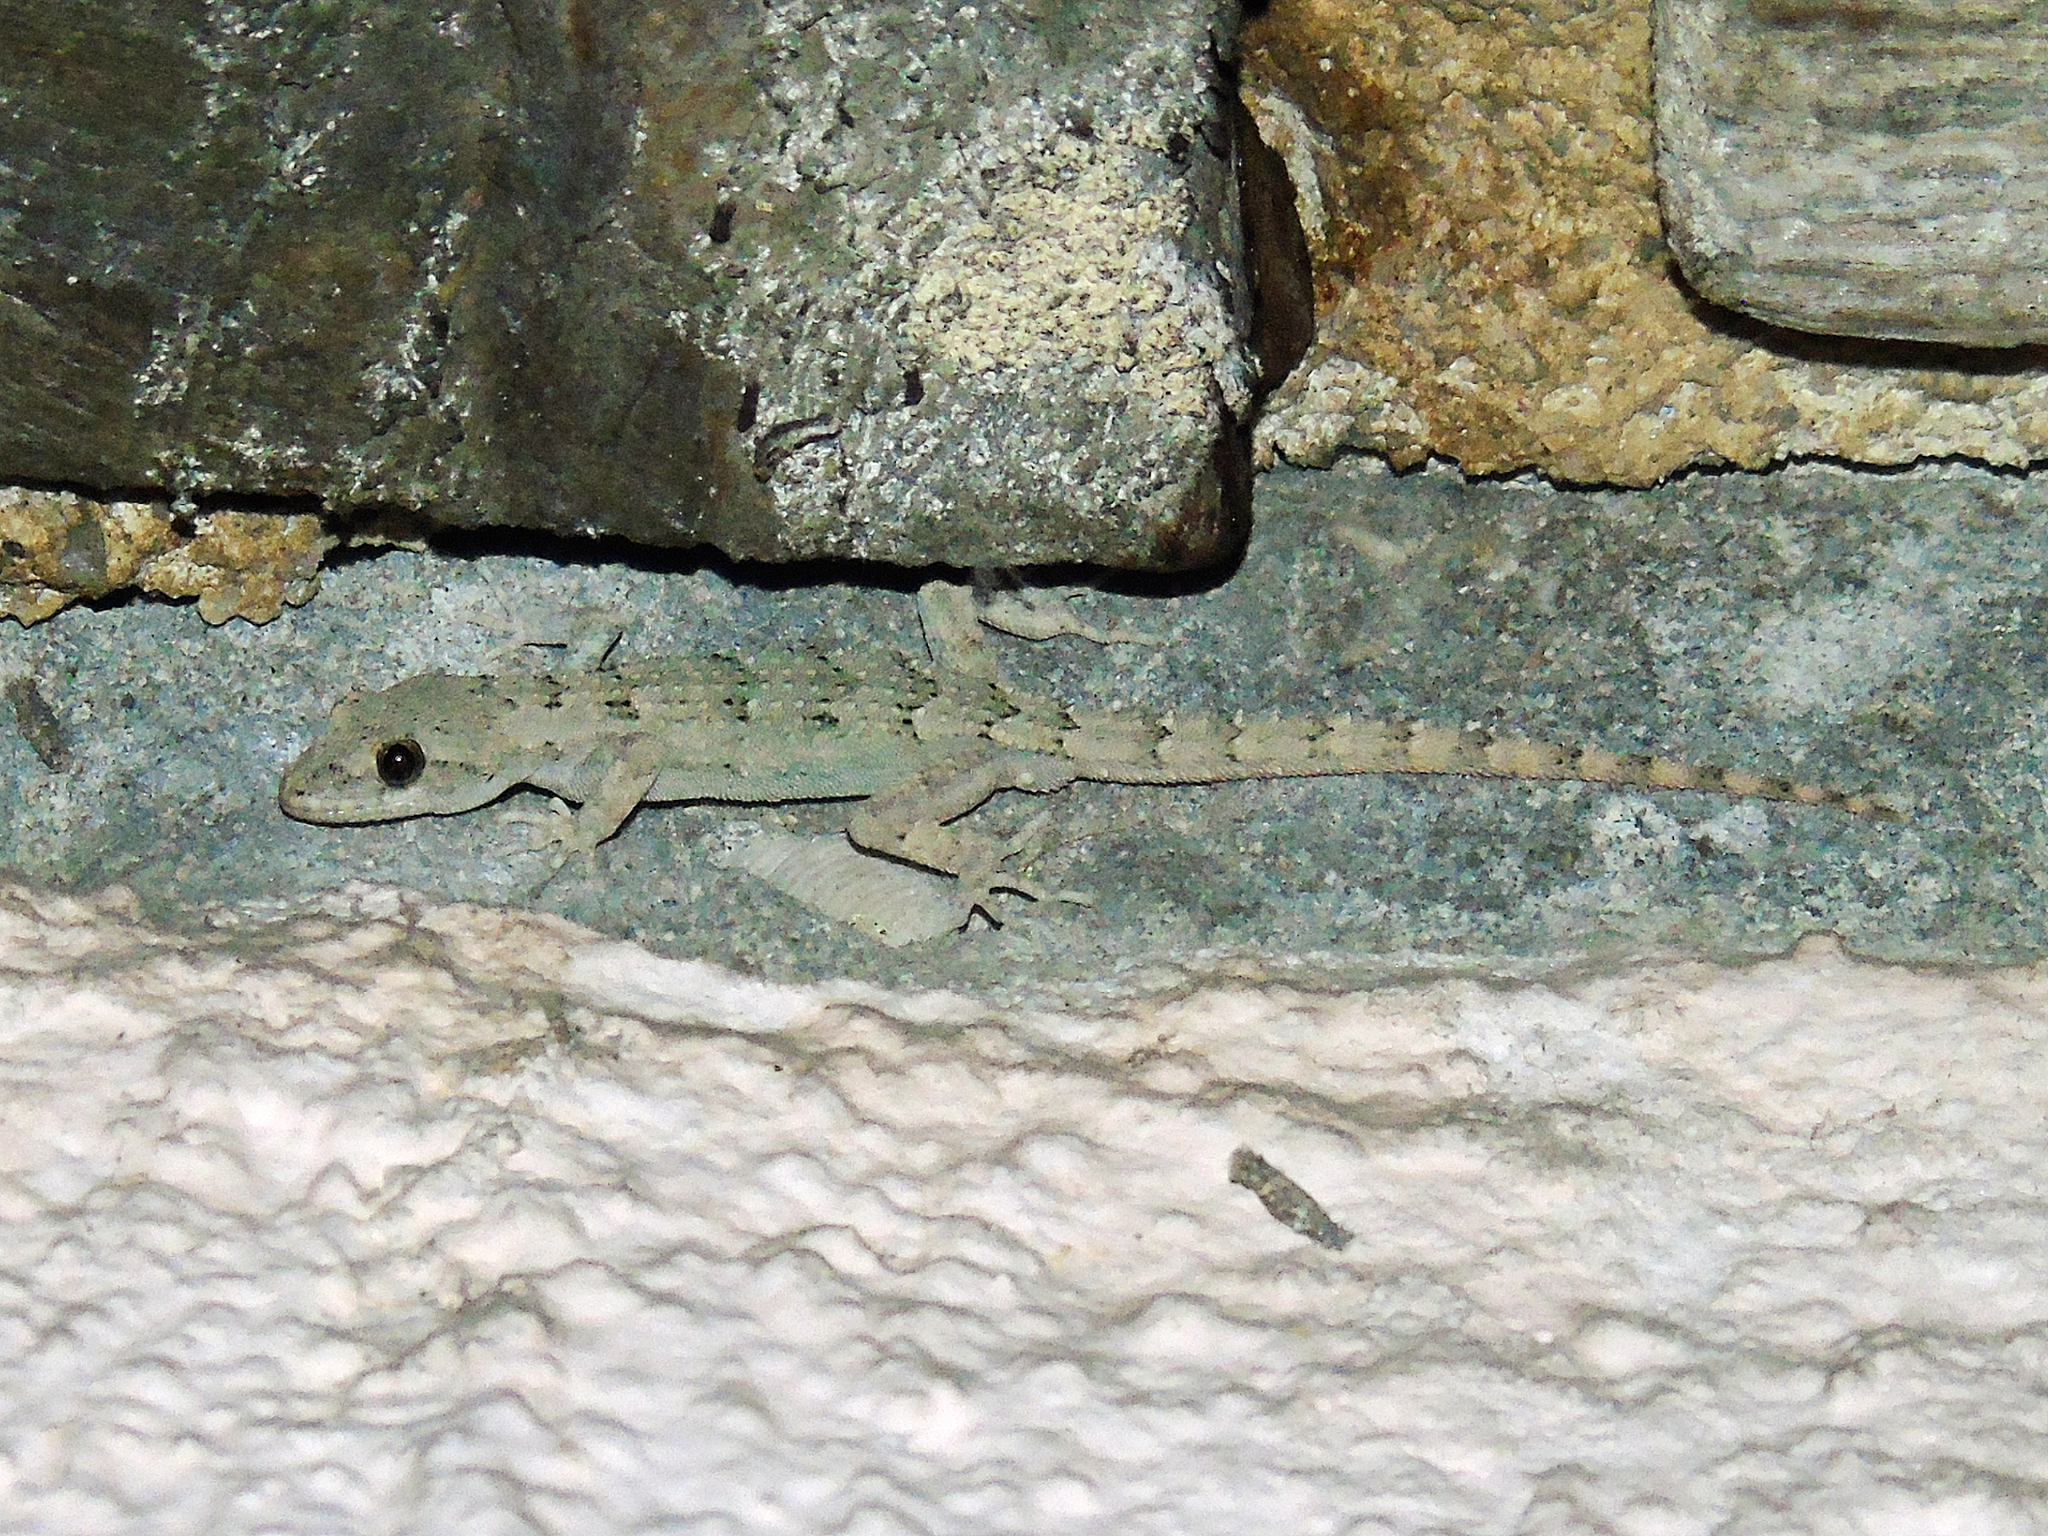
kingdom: Animalia
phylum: Chordata
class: Squamata
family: Gekkonidae
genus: Mediodactylus
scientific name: Mediodactylus danilewskii
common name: Bulgarian bent-toed gecko
